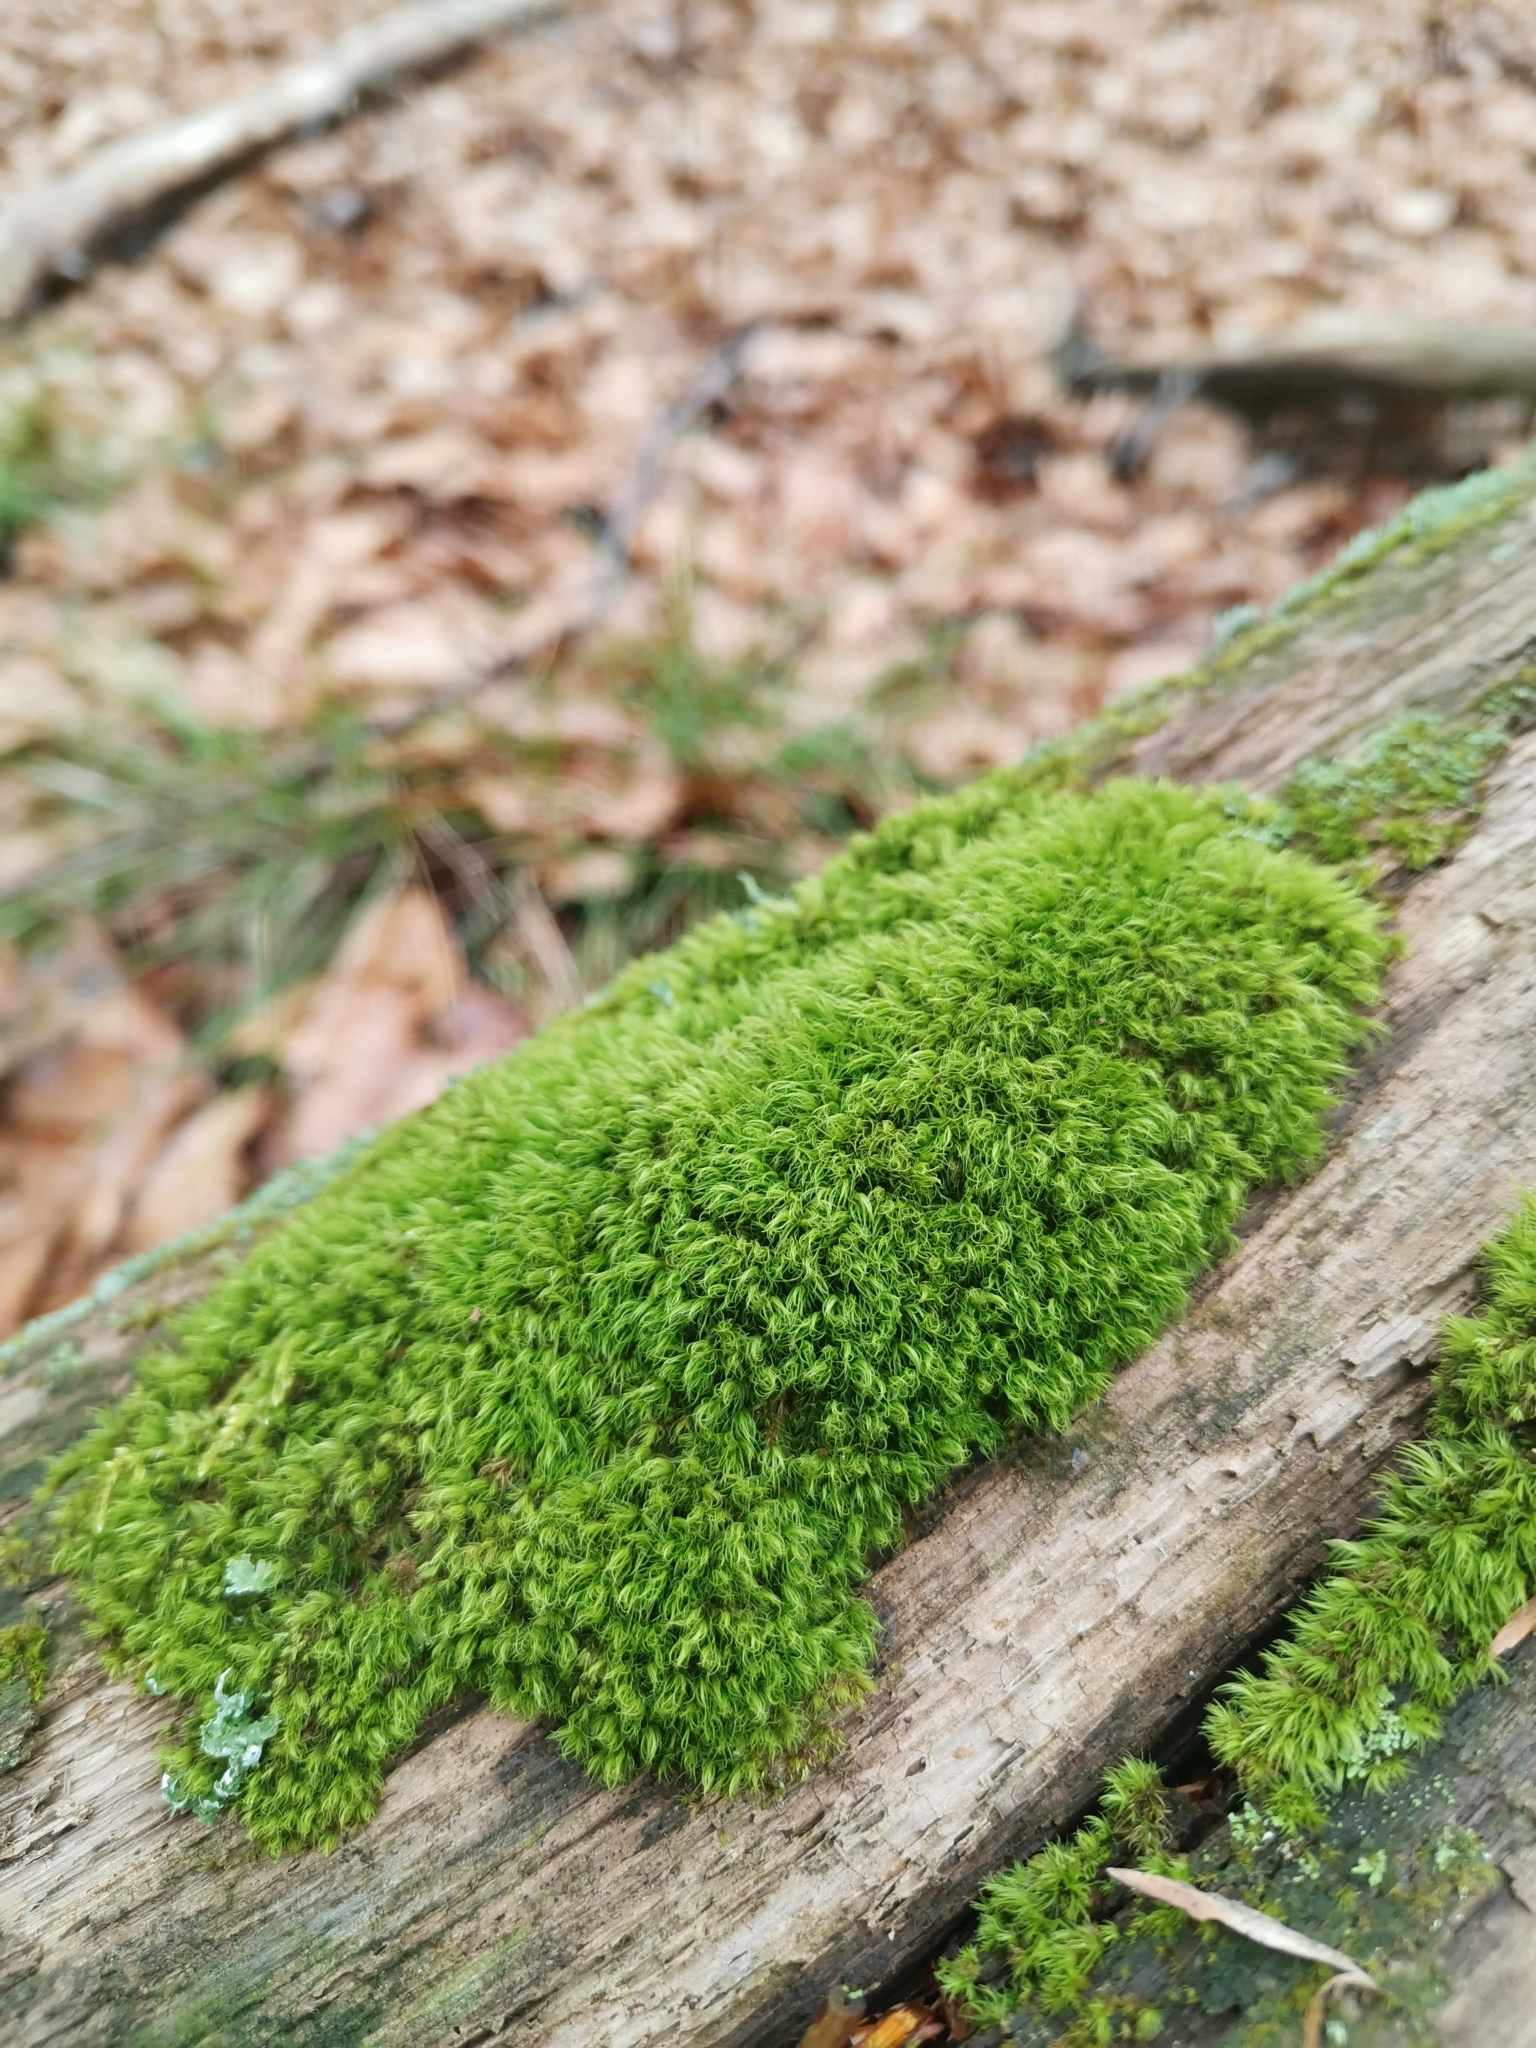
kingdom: Plantae
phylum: Bryophyta
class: Bryopsida
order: Dicranales
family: Dicranaceae
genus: Orthodicranum
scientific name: Orthodicranum montanum
